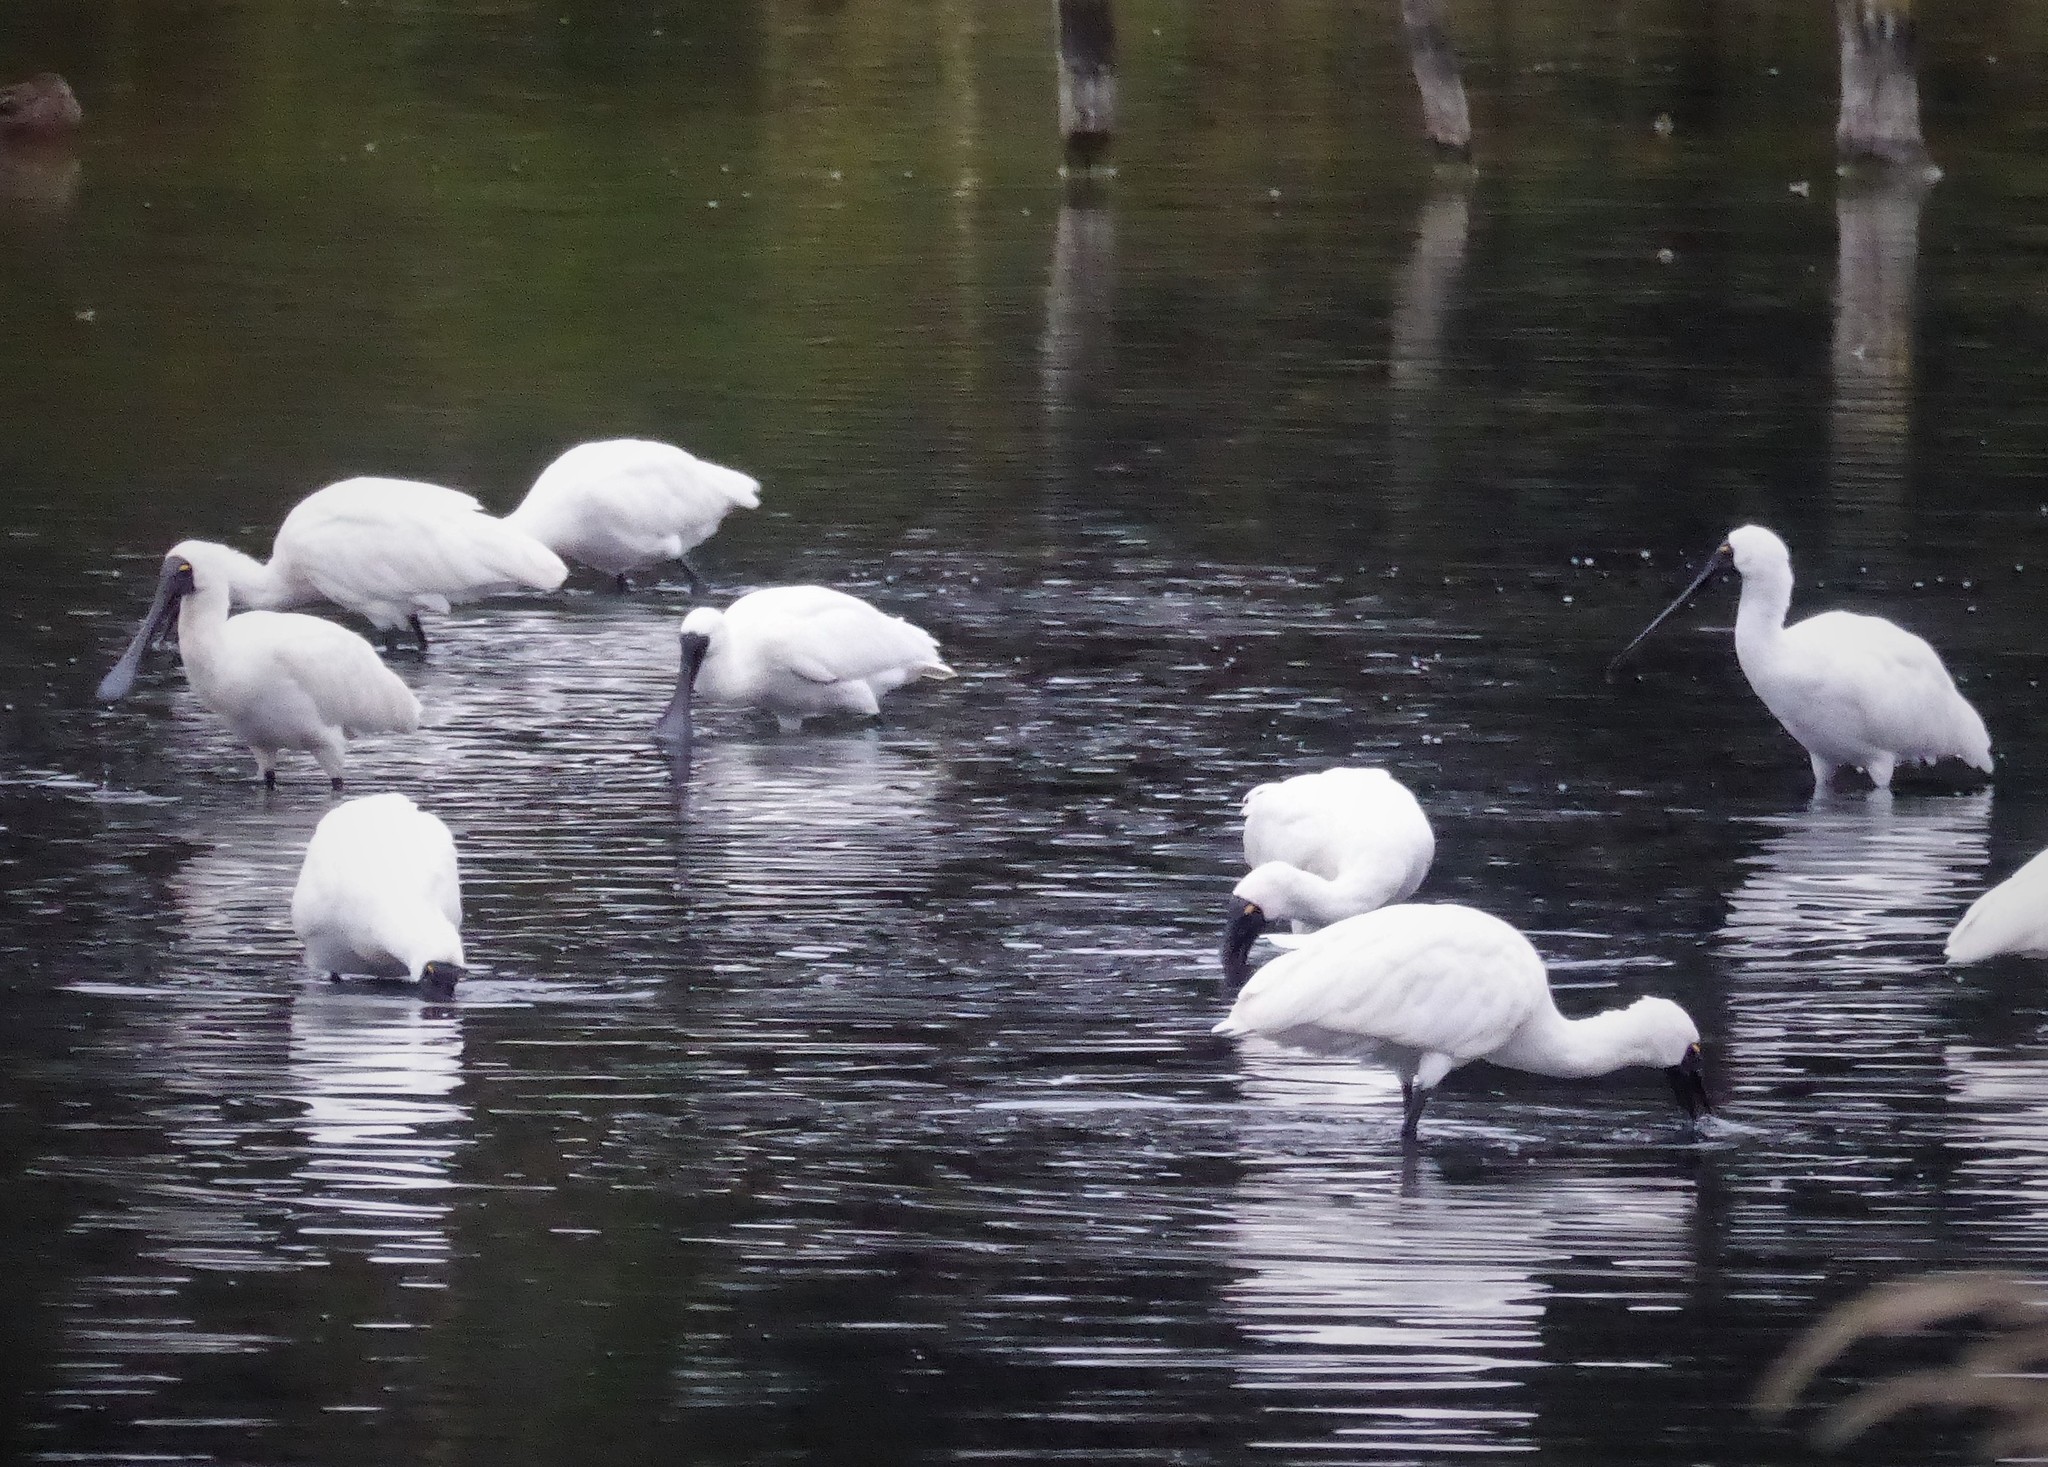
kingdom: Animalia
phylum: Chordata
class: Aves
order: Pelecaniformes
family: Threskiornithidae
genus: Platalea
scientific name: Platalea regia
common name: Royal spoonbill
